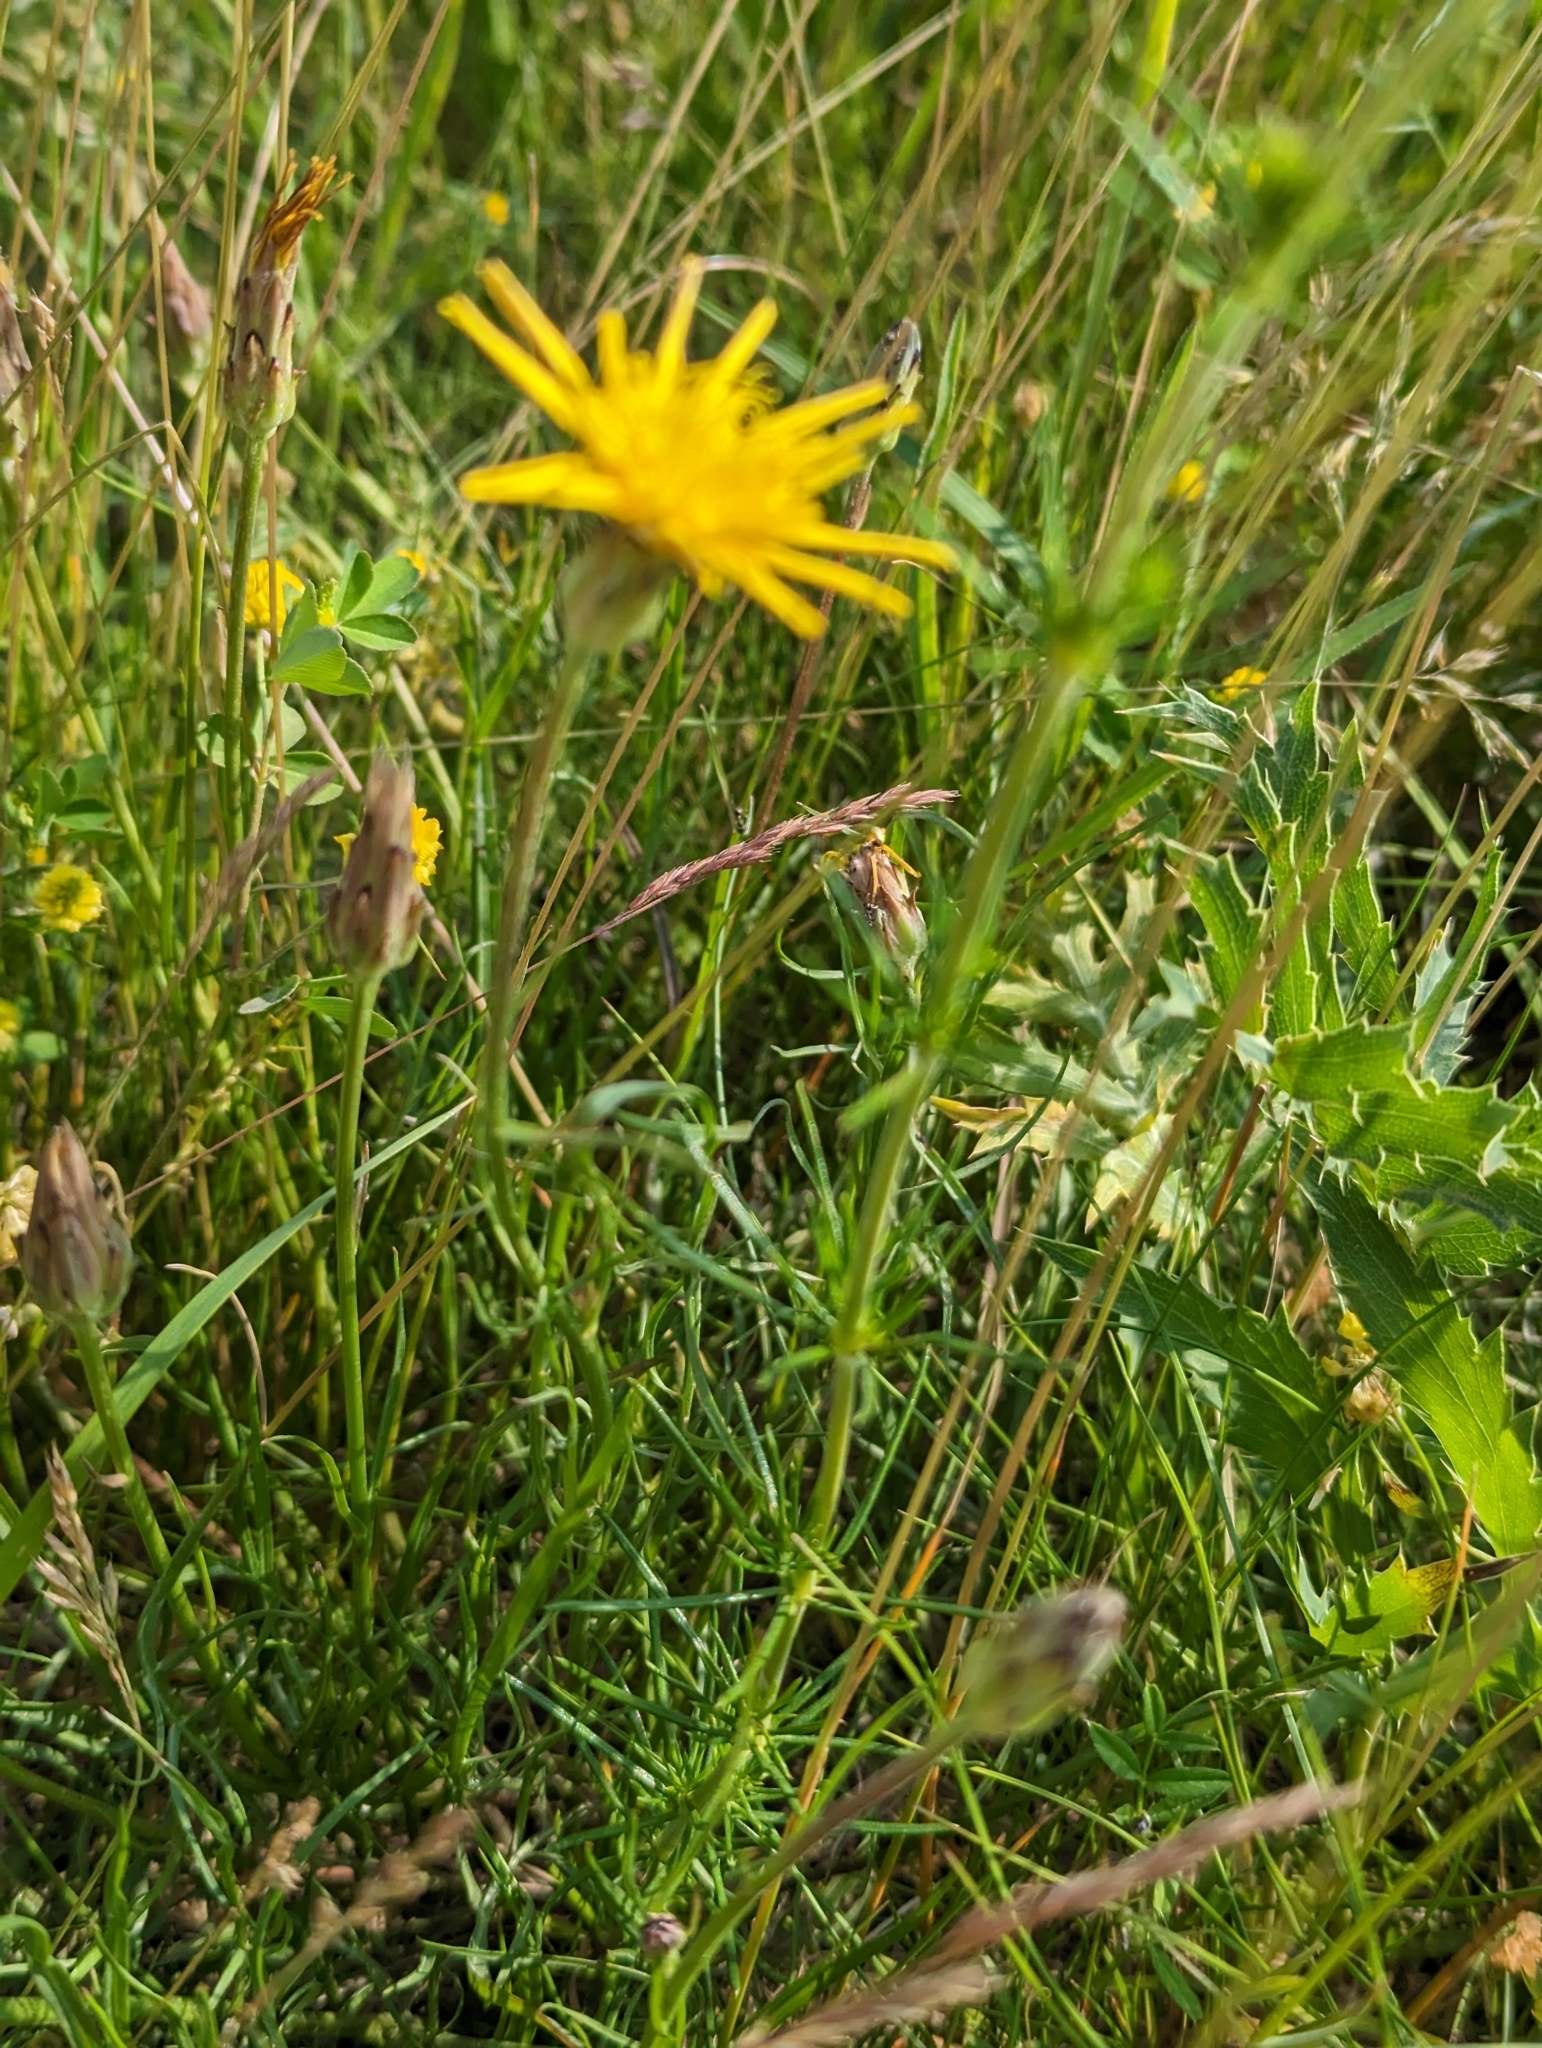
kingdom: Plantae
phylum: Tracheophyta
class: Magnoliopsida
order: Asterales
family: Asteraceae
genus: Scorzonera
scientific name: Scorzonera cana
